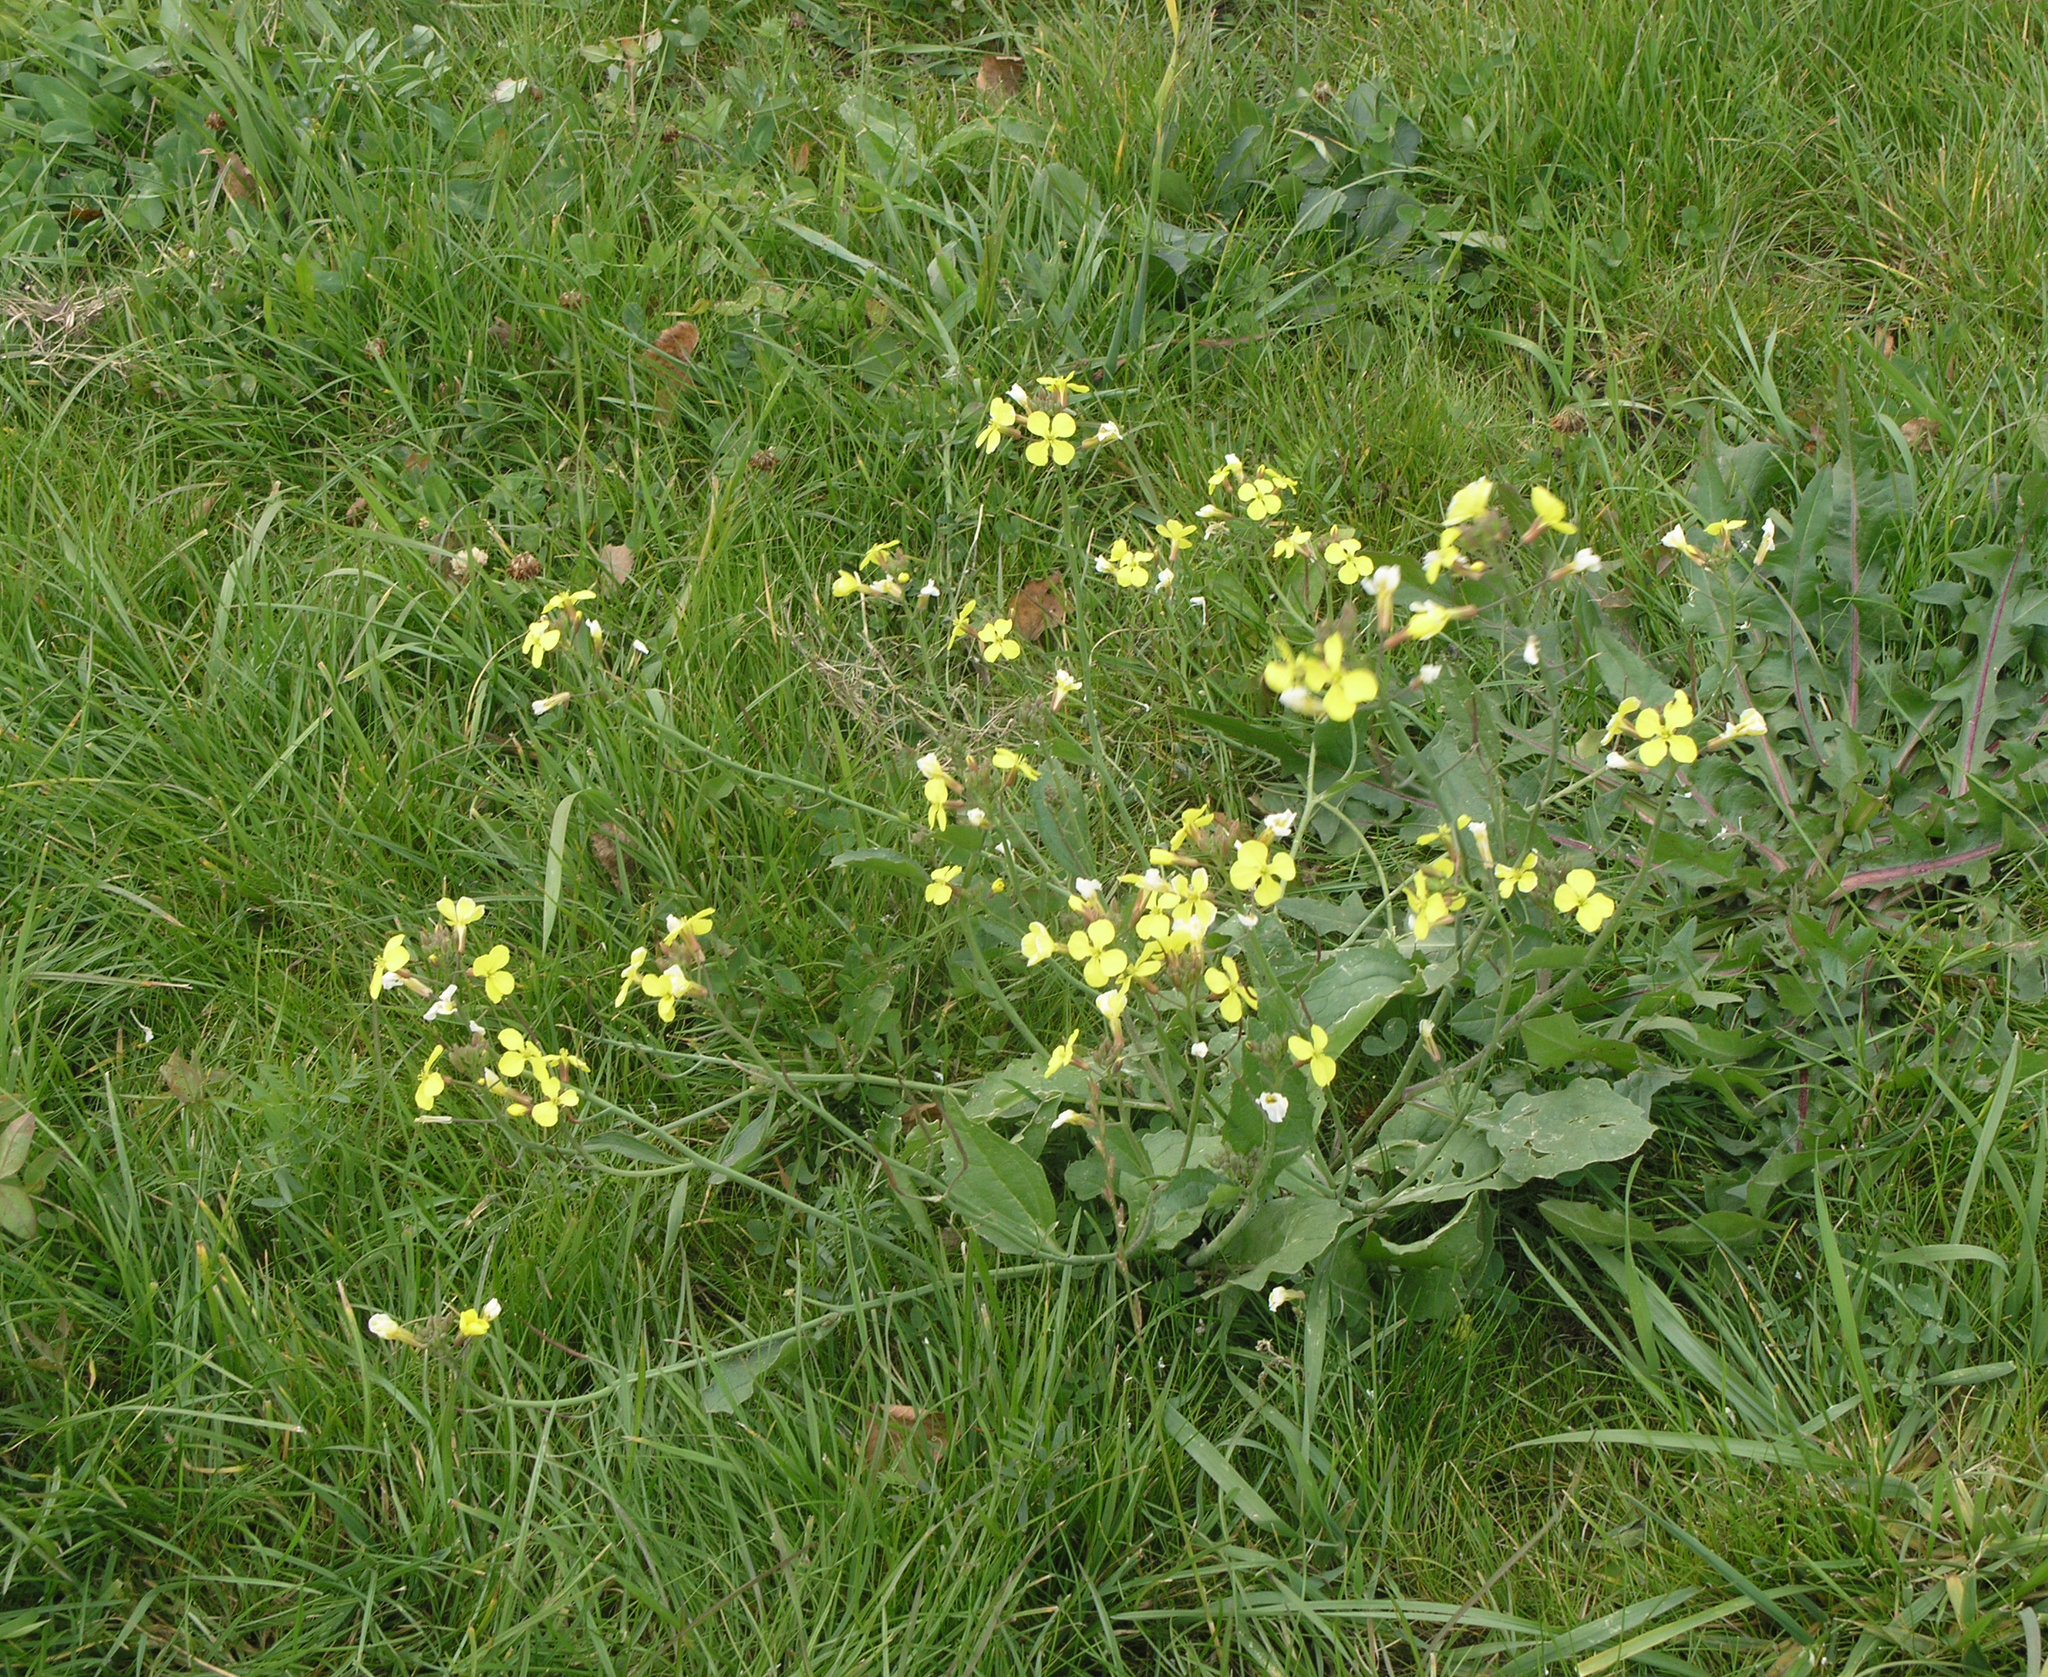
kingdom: Plantae
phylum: Tracheophyta
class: Magnoliopsida
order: Brassicales
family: Brassicaceae
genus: Raphanus
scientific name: Raphanus raphanistrum
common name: Wild radish
